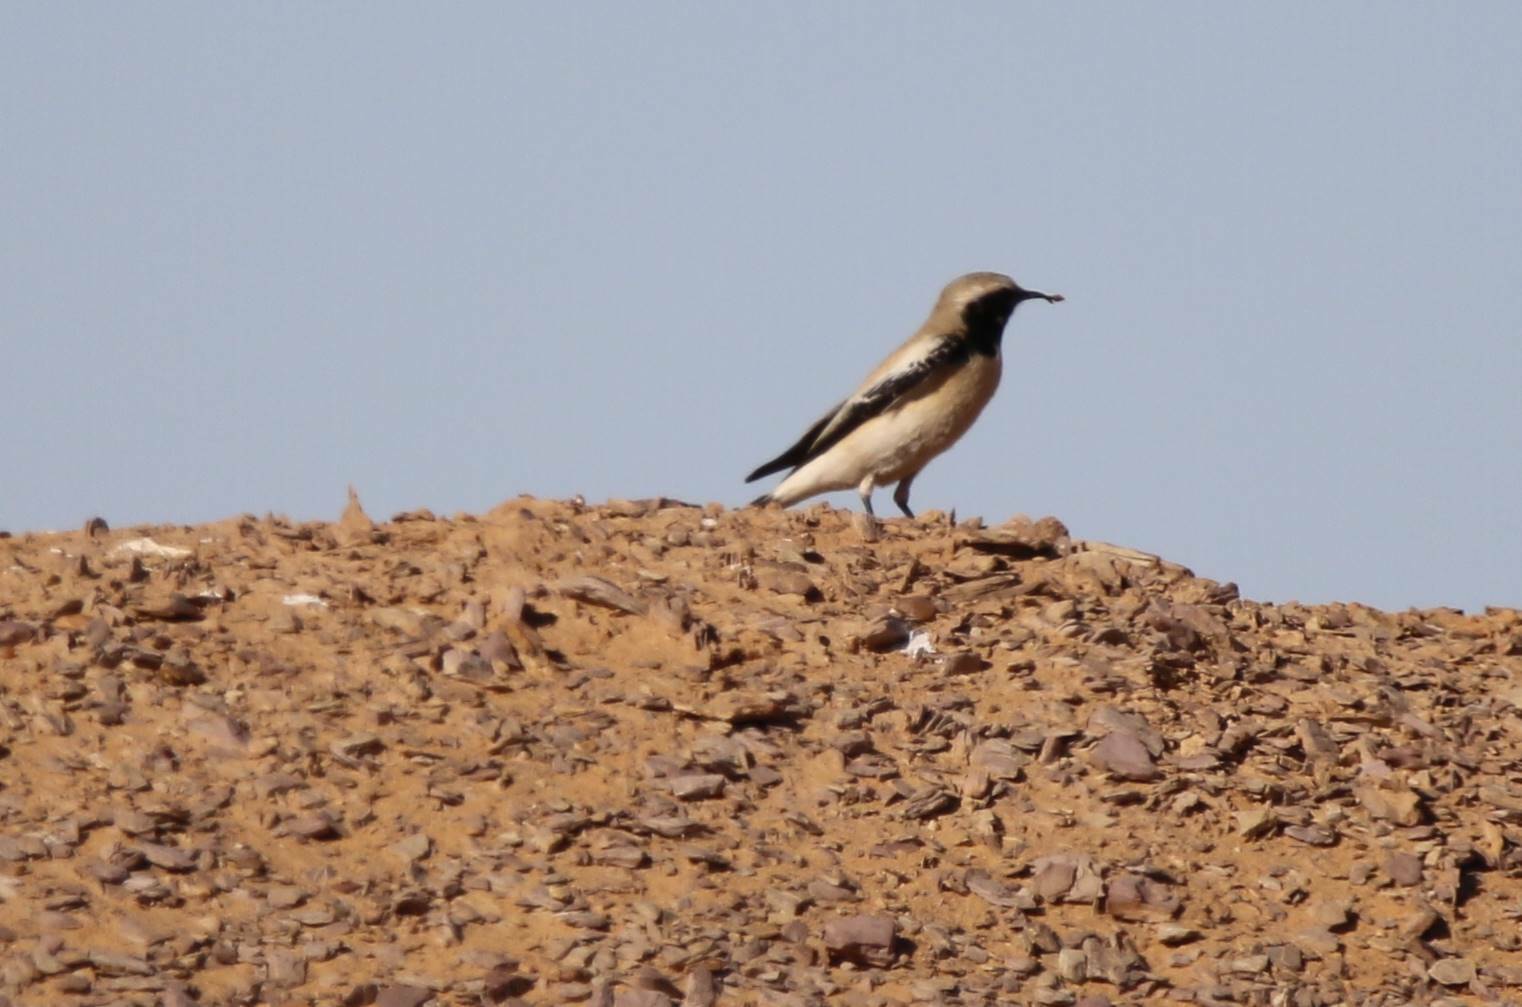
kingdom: Animalia
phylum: Chordata
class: Aves
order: Passeriformes
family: Muscicapidae
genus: Oenanthe
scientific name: Oenanthe deserti
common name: Desert wheatear
